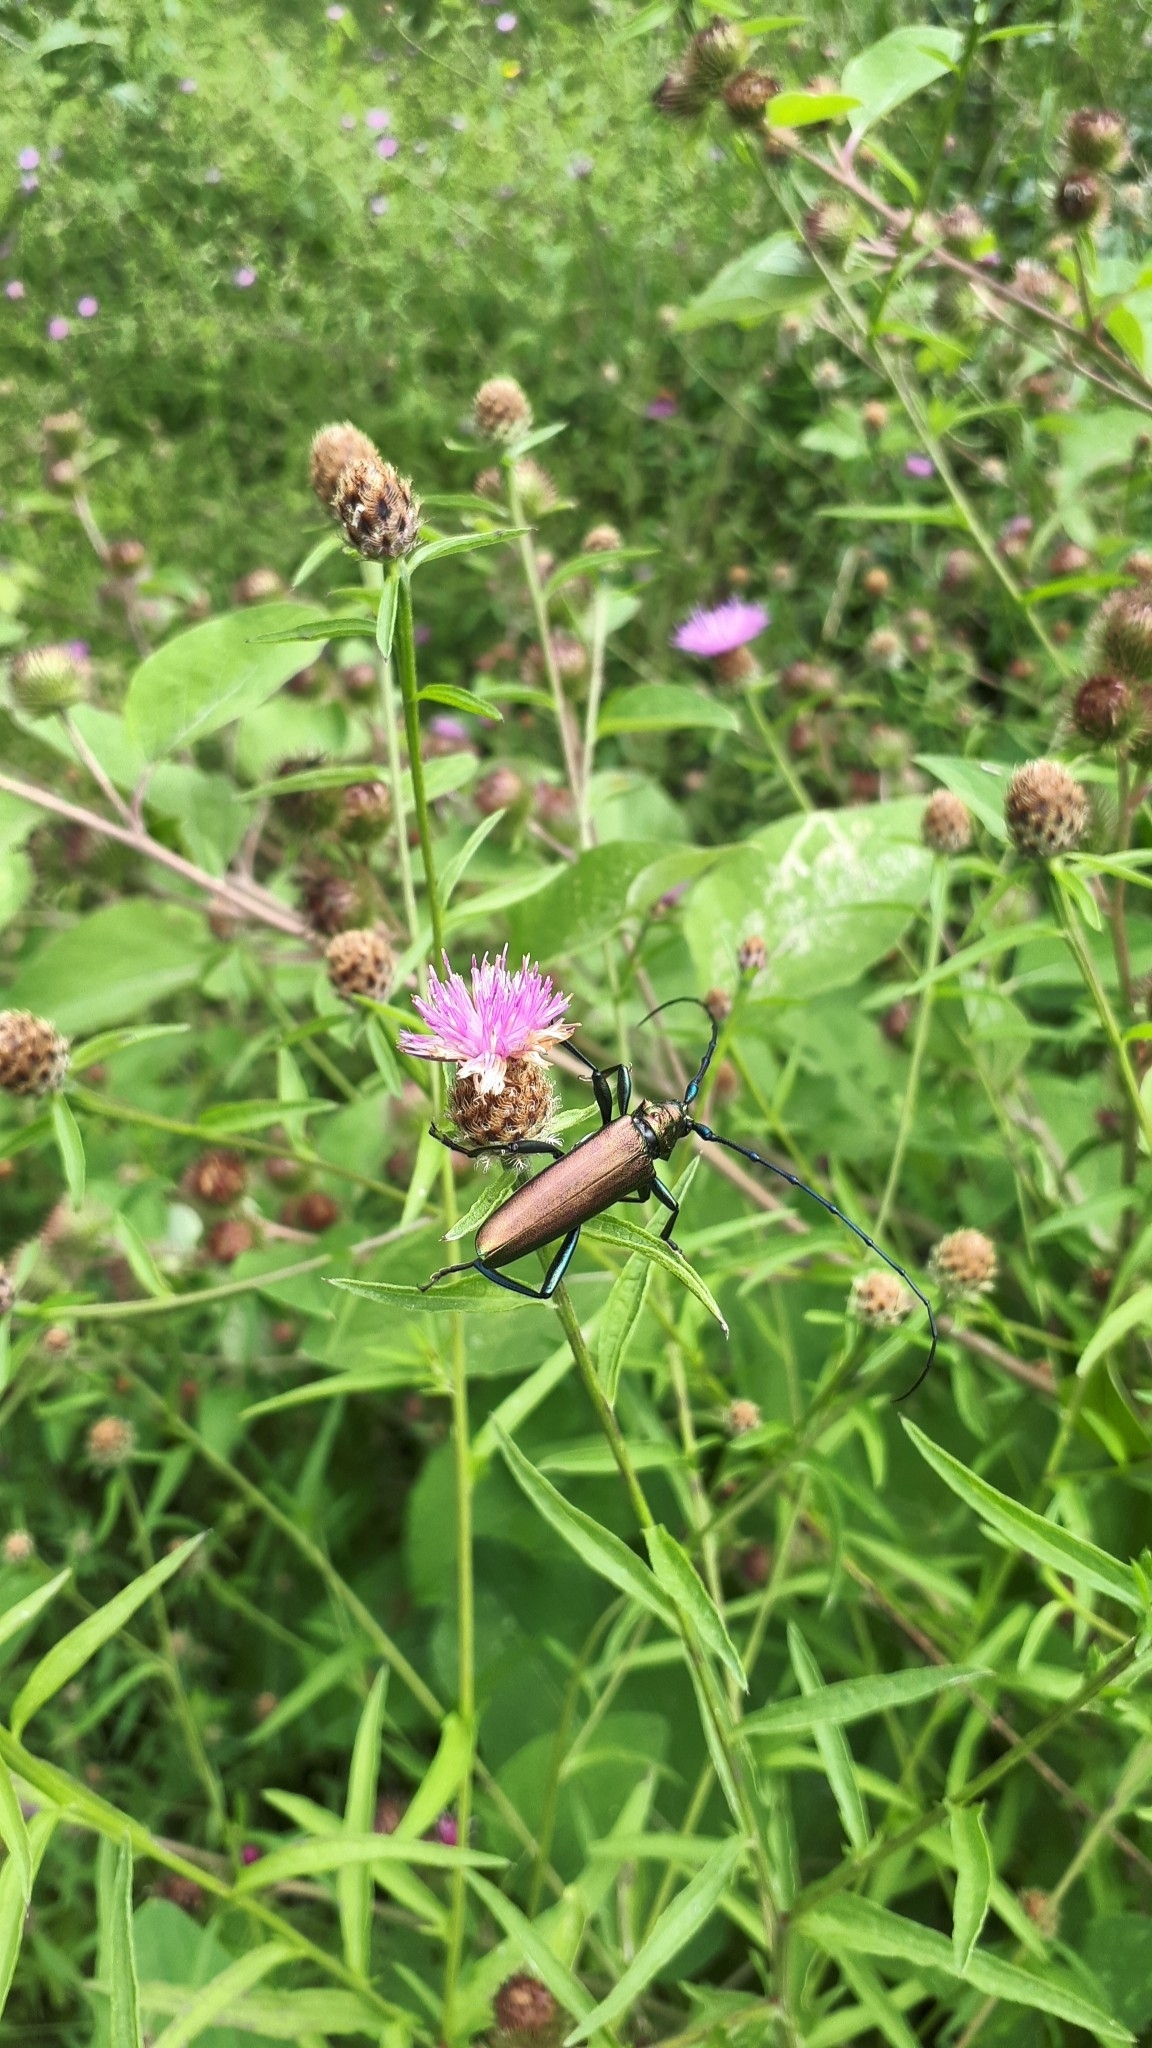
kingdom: Animalia
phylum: Arthropoda
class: Insecta
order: Coleoptera
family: Cerambycidae
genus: Aromia
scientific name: Aromia moschata
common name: Musk beetle
